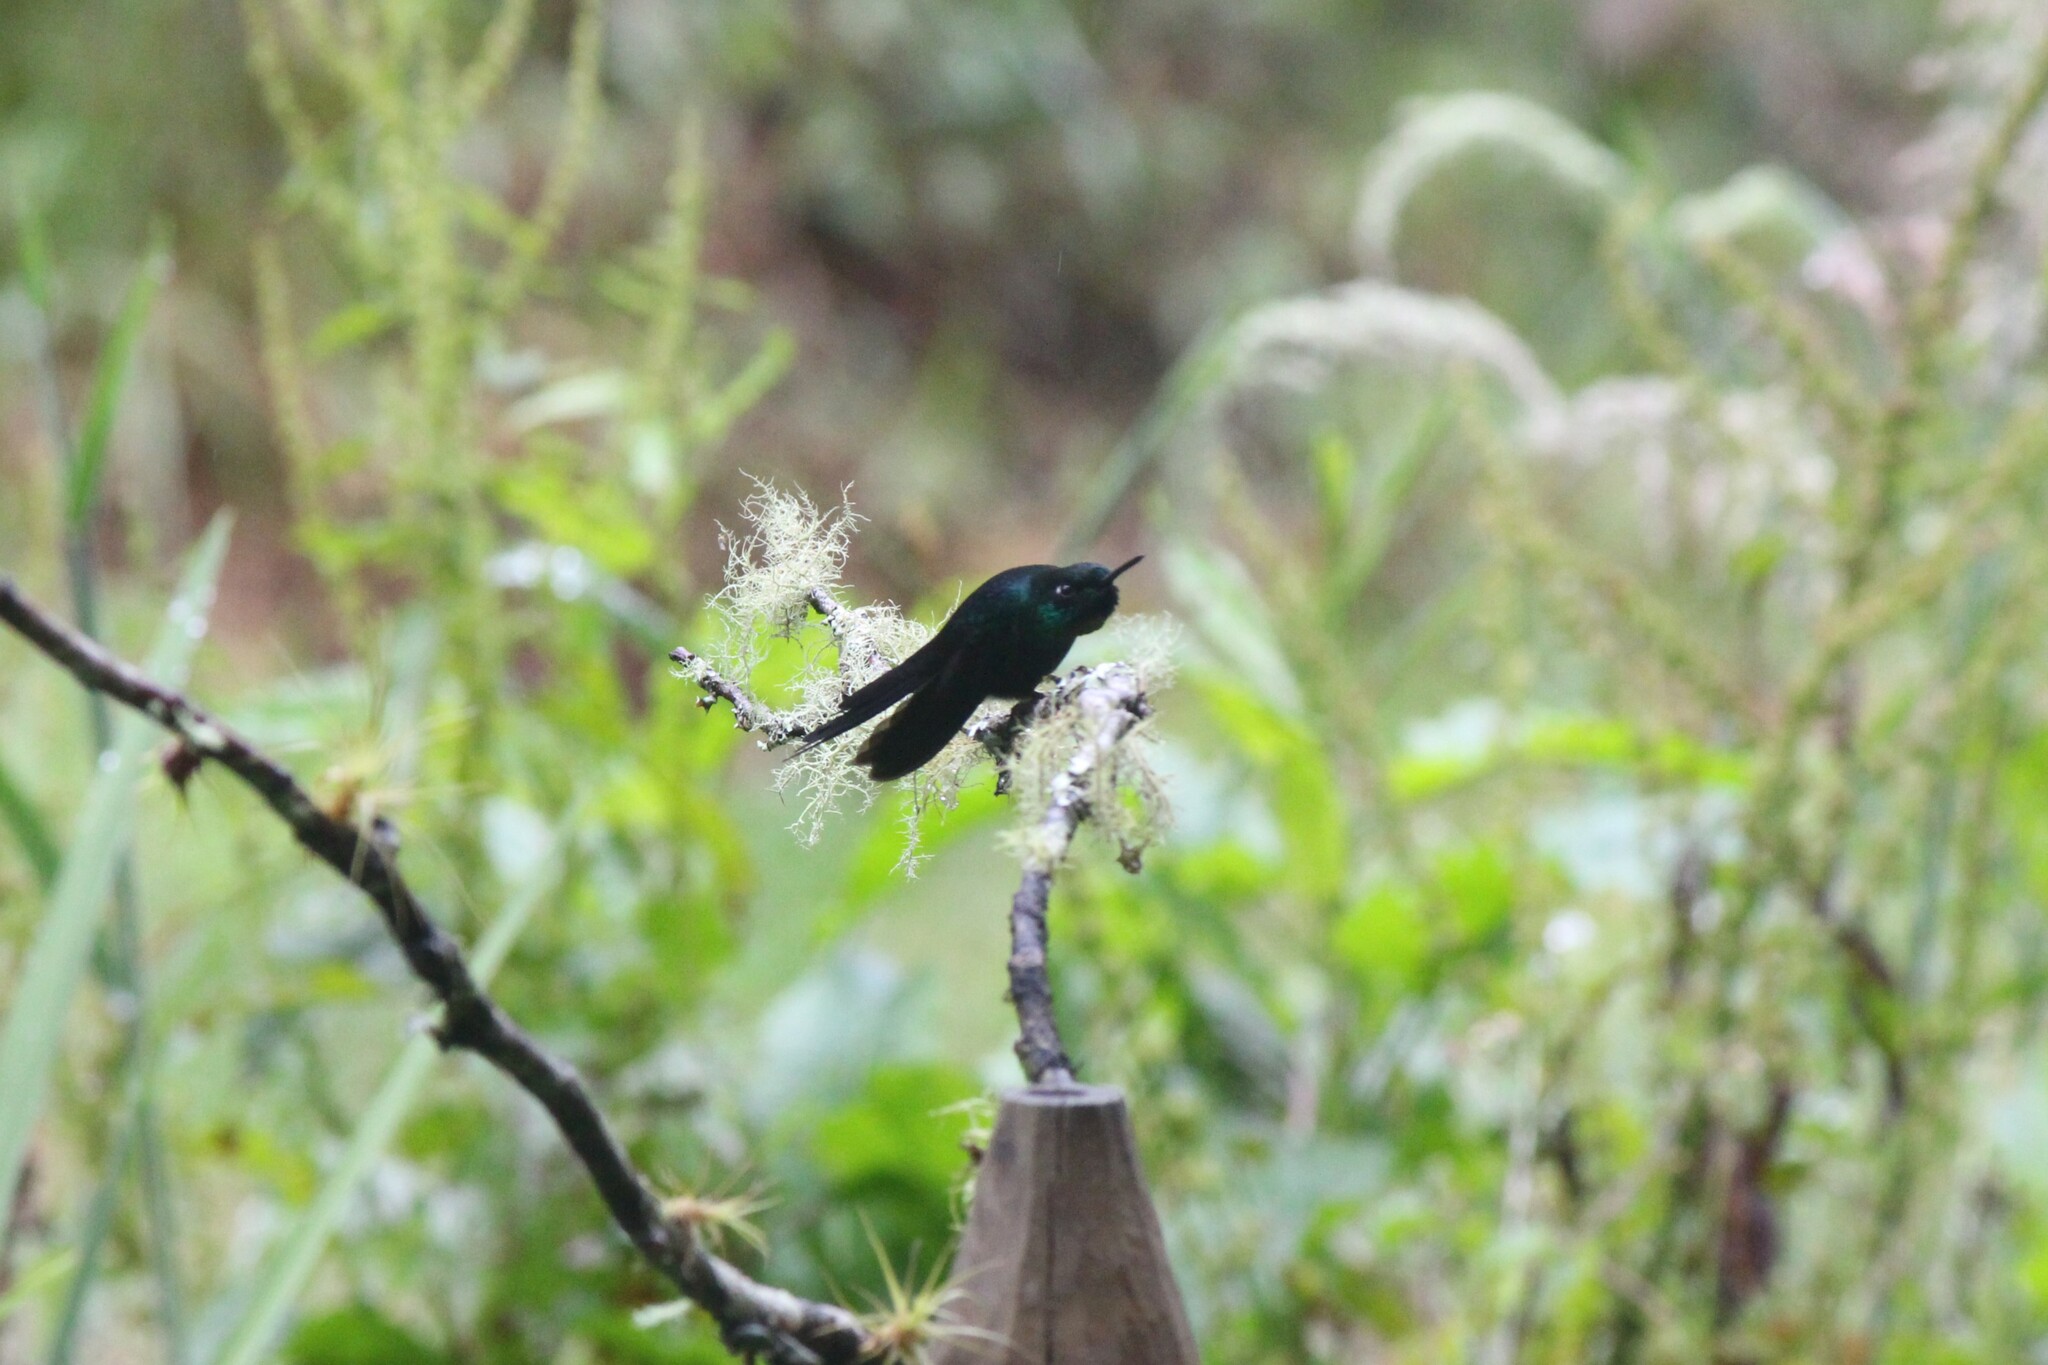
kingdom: Animalia
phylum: Chordata
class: Aves
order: Apodiformes
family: Trochilidae
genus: Heliangelus
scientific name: Heliangelus exortis
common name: Tourmaline sunangel
